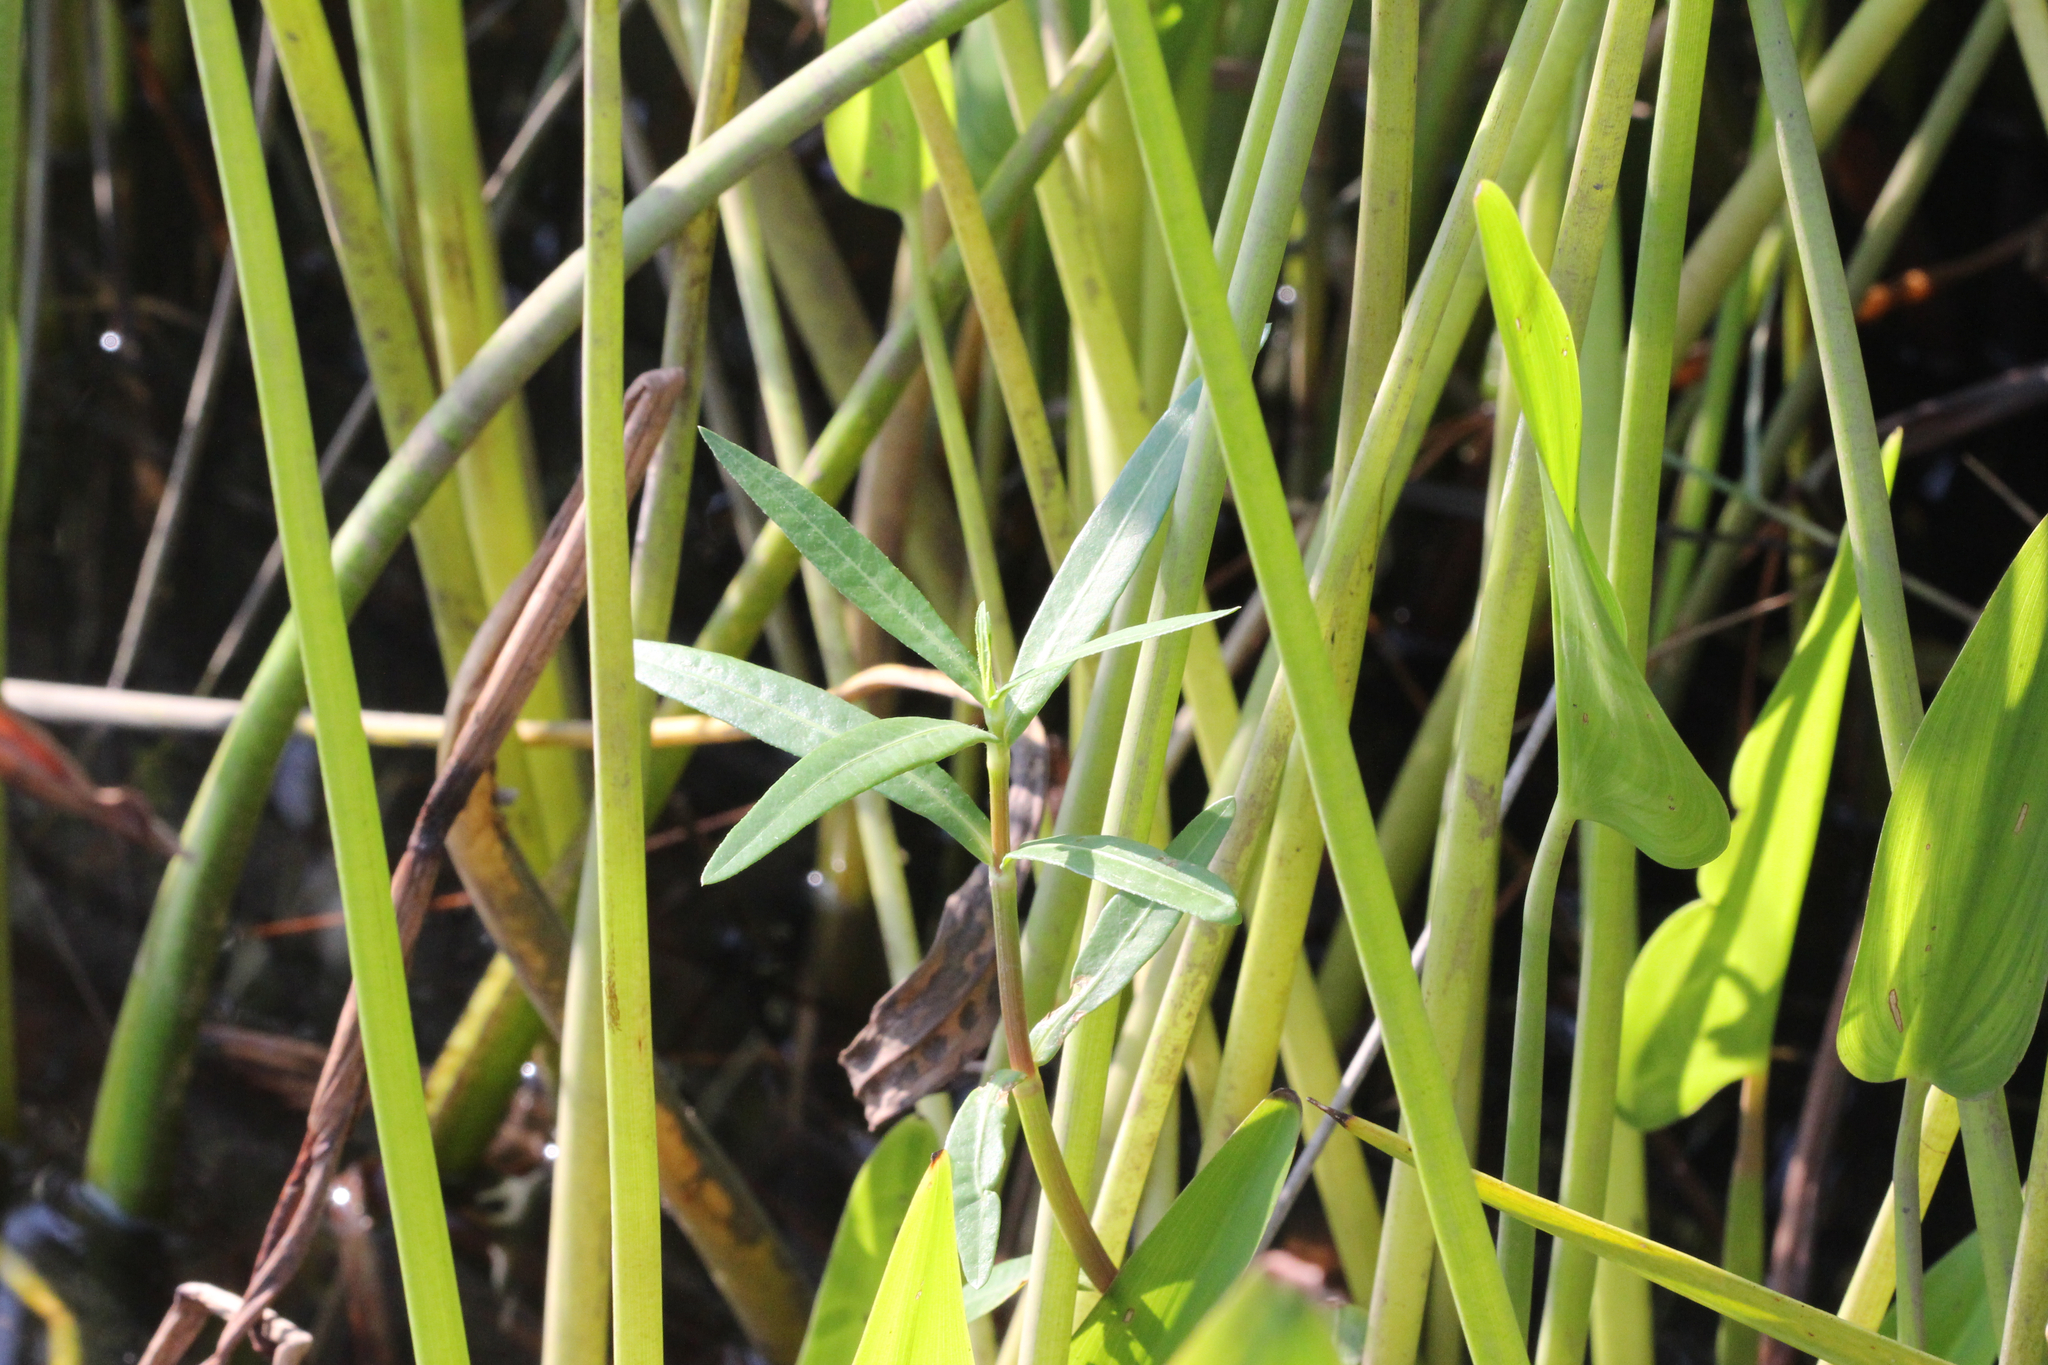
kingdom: Plantae
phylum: Tracheophyta
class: Magnoliopsida
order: Caryophyllales
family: Amaranthaceae
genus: Alternanthera
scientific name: Alternanthera philoxeroides
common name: Alligatorweed
